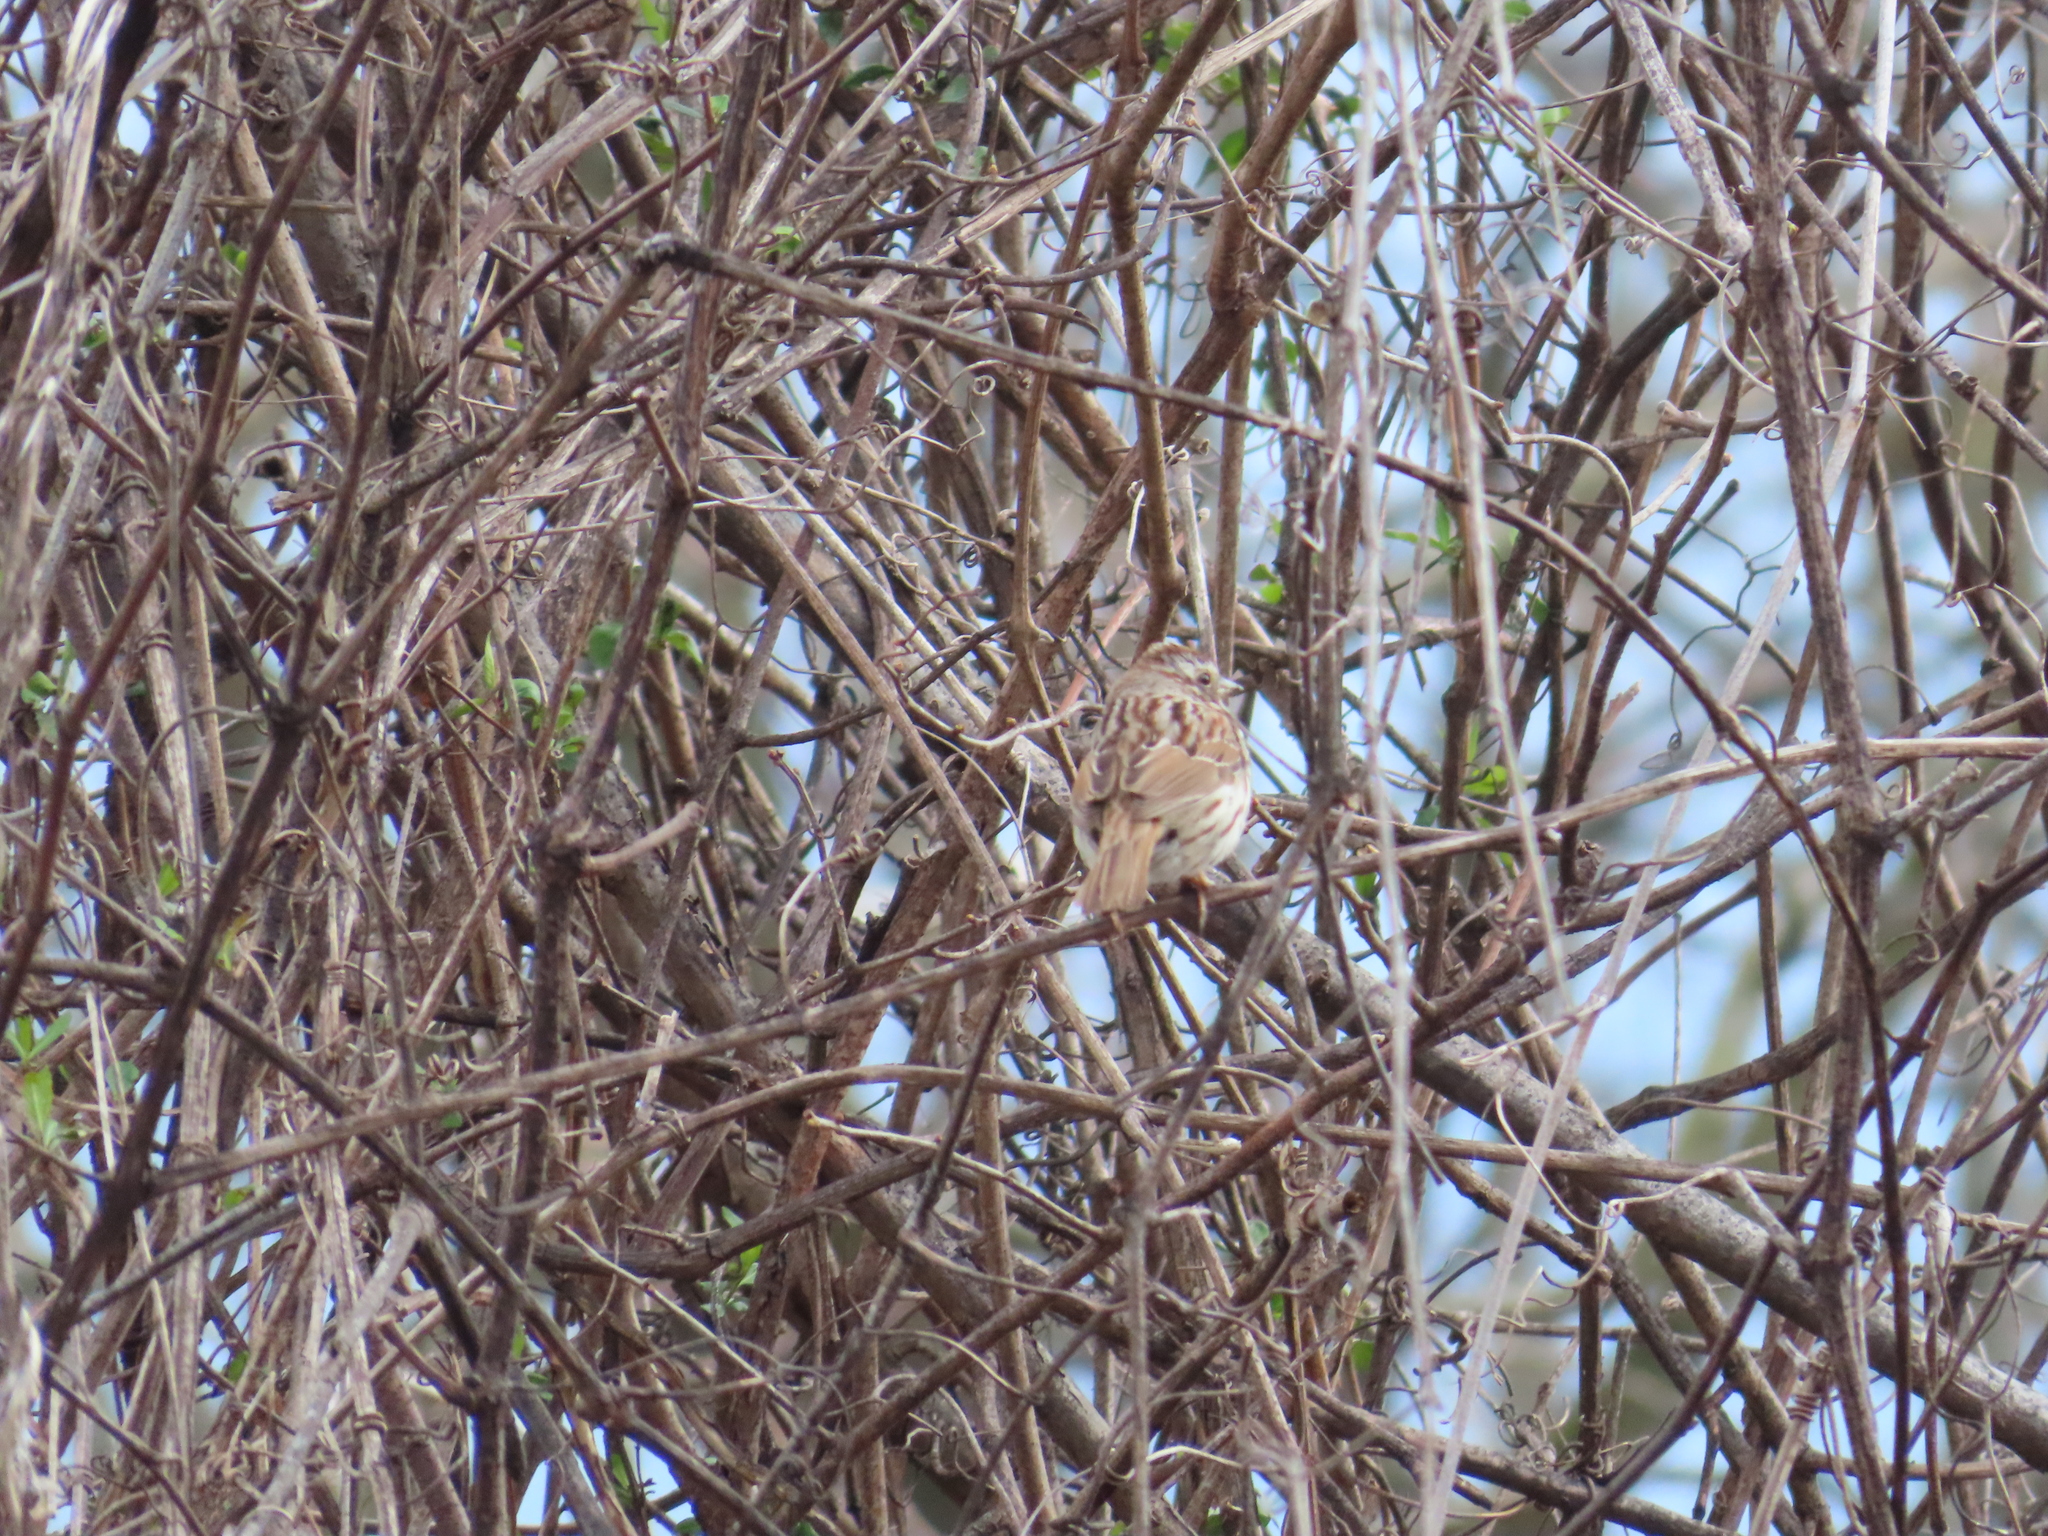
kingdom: Animalia
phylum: Chordata
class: Aves
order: Passeriformes
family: Passerellidae
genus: Melospiza
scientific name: Melospiza melodia
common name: Song sparrow
